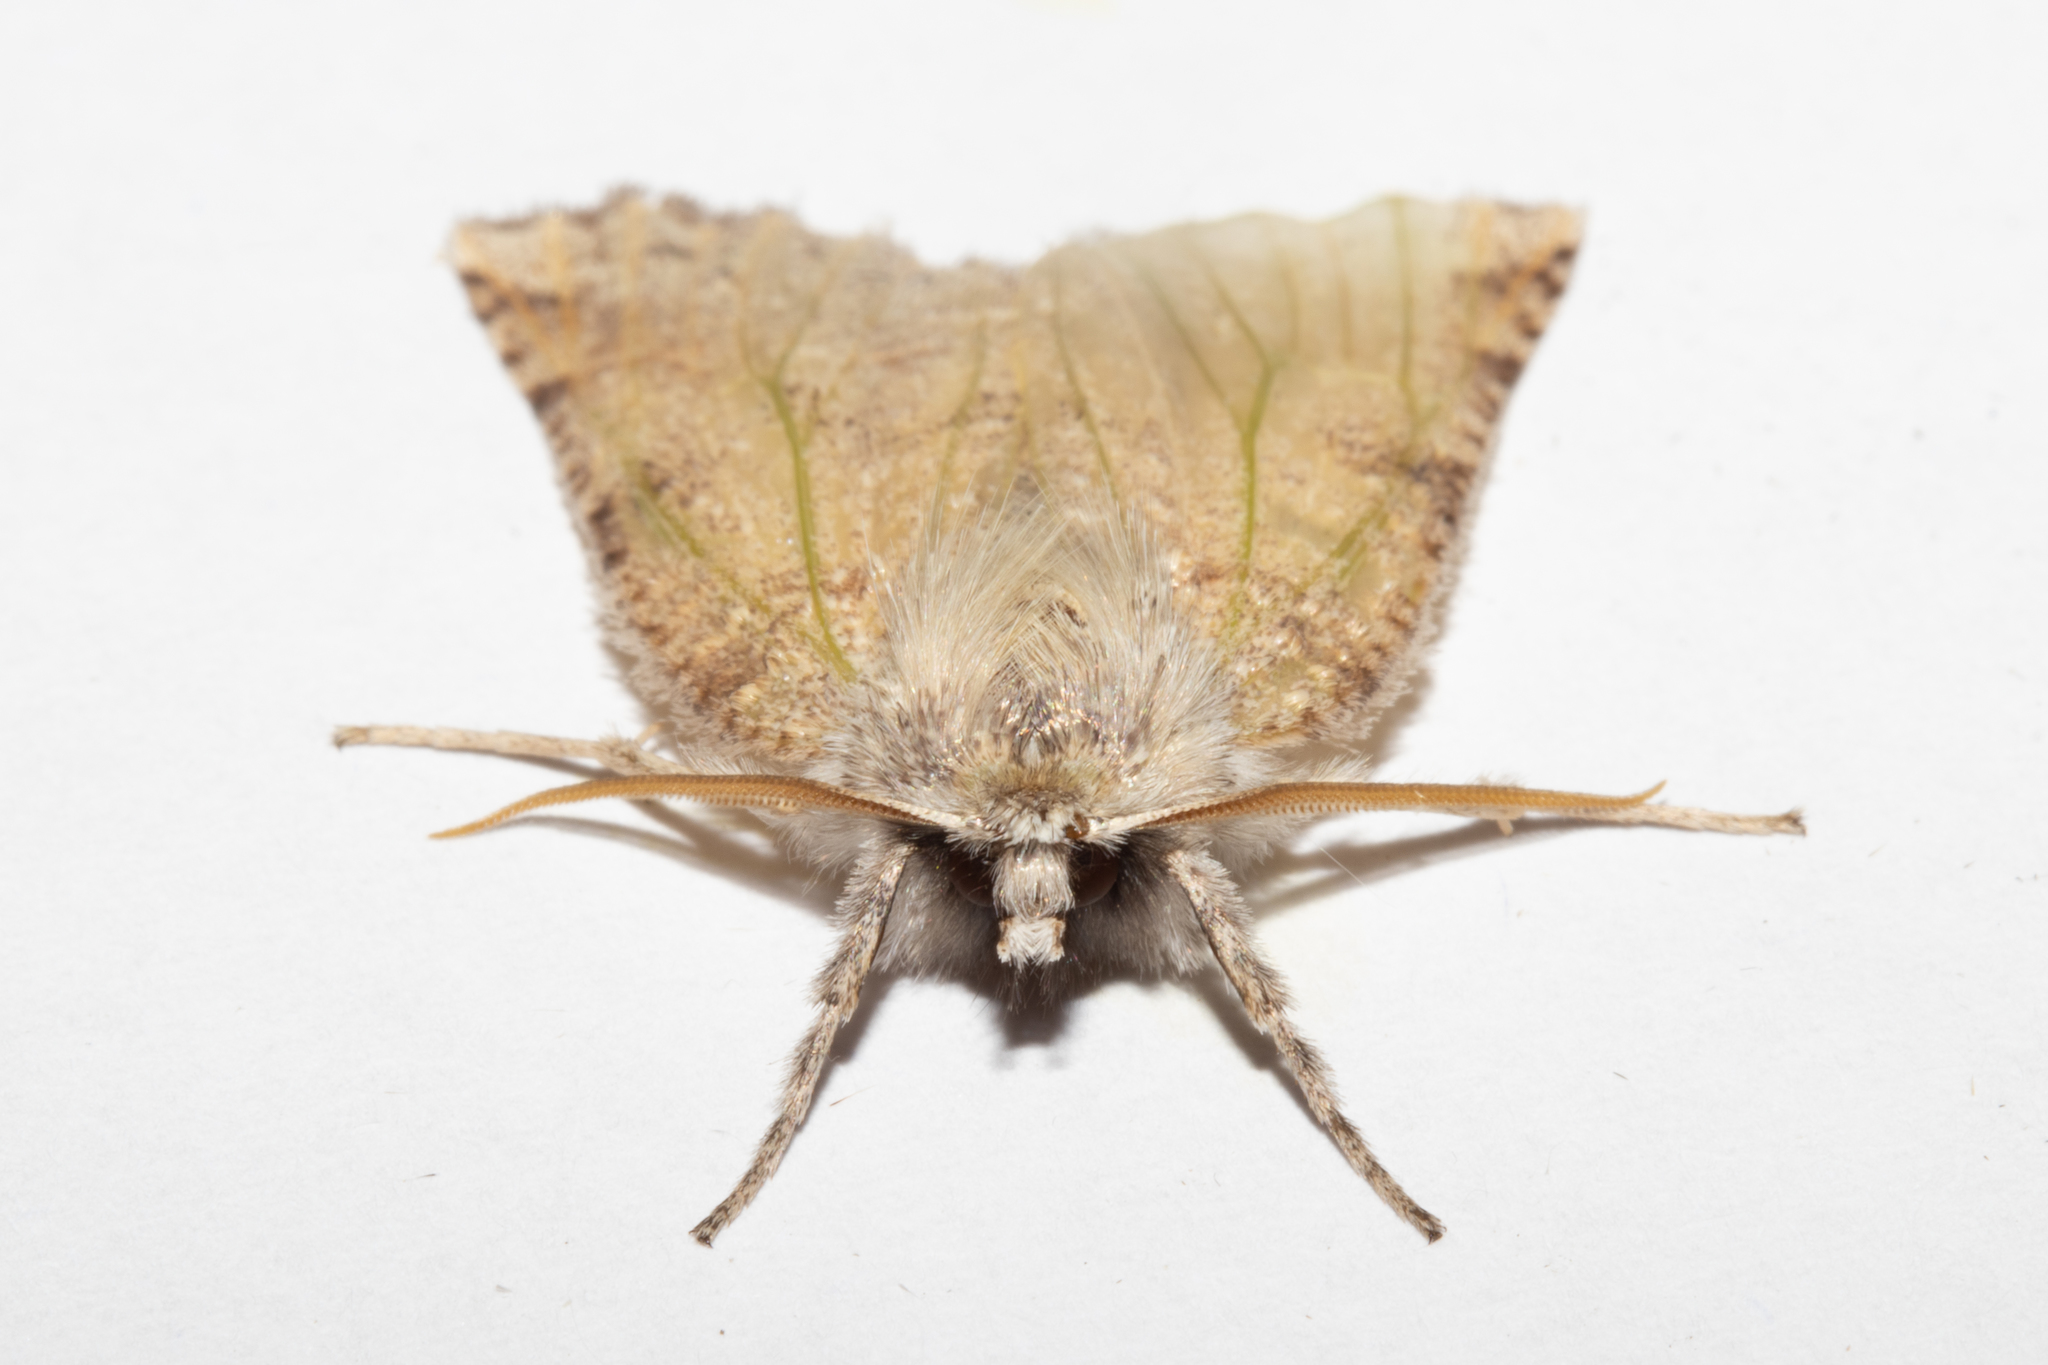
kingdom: Animalia
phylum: Arthropoda
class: Insecta
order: Lepidoptera
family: Geometridae
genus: Declana
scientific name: Declana floccosa
